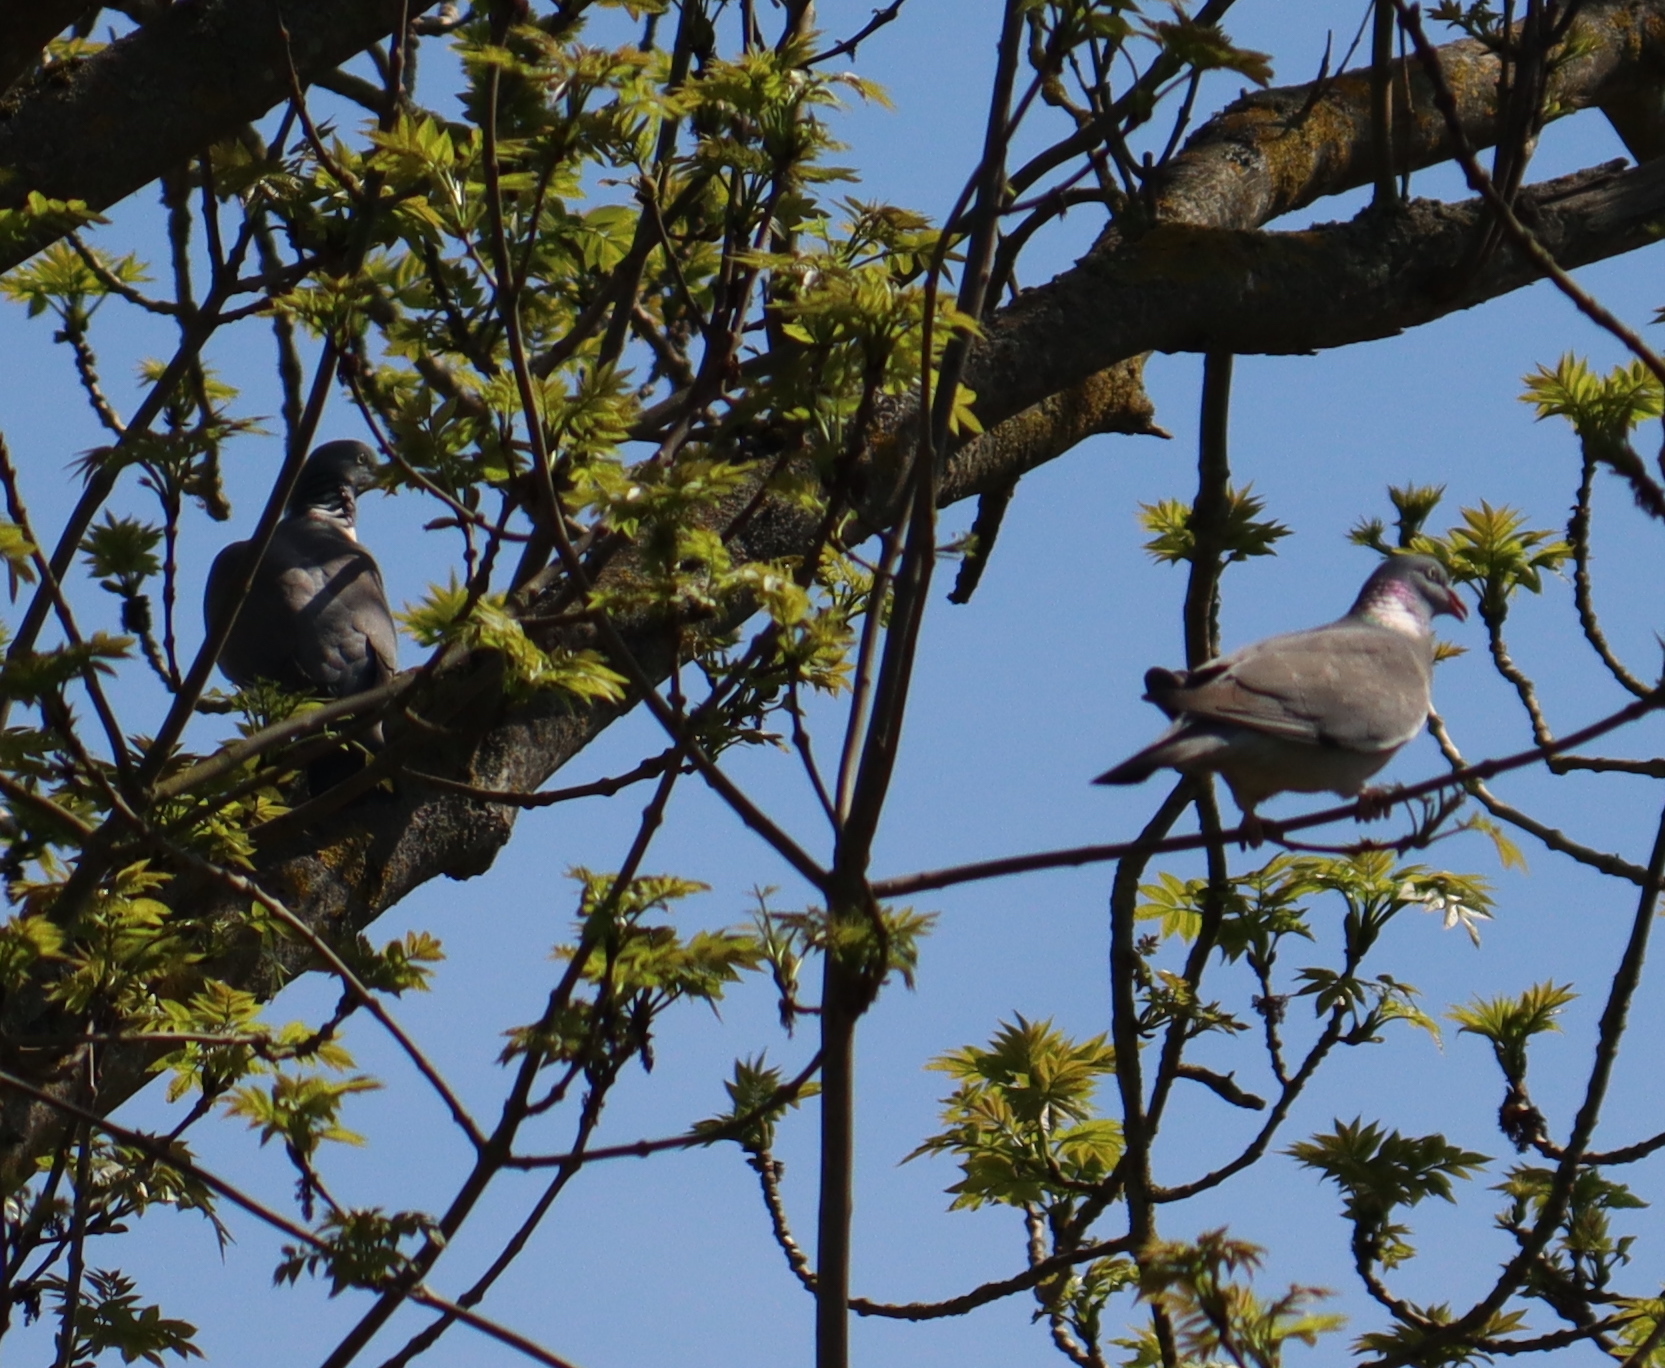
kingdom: Animalia
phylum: Chordata
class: Aves
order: Columbiformes
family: Columbidae
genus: Columba
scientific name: Columba palumbus
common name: Common wood pigeon
